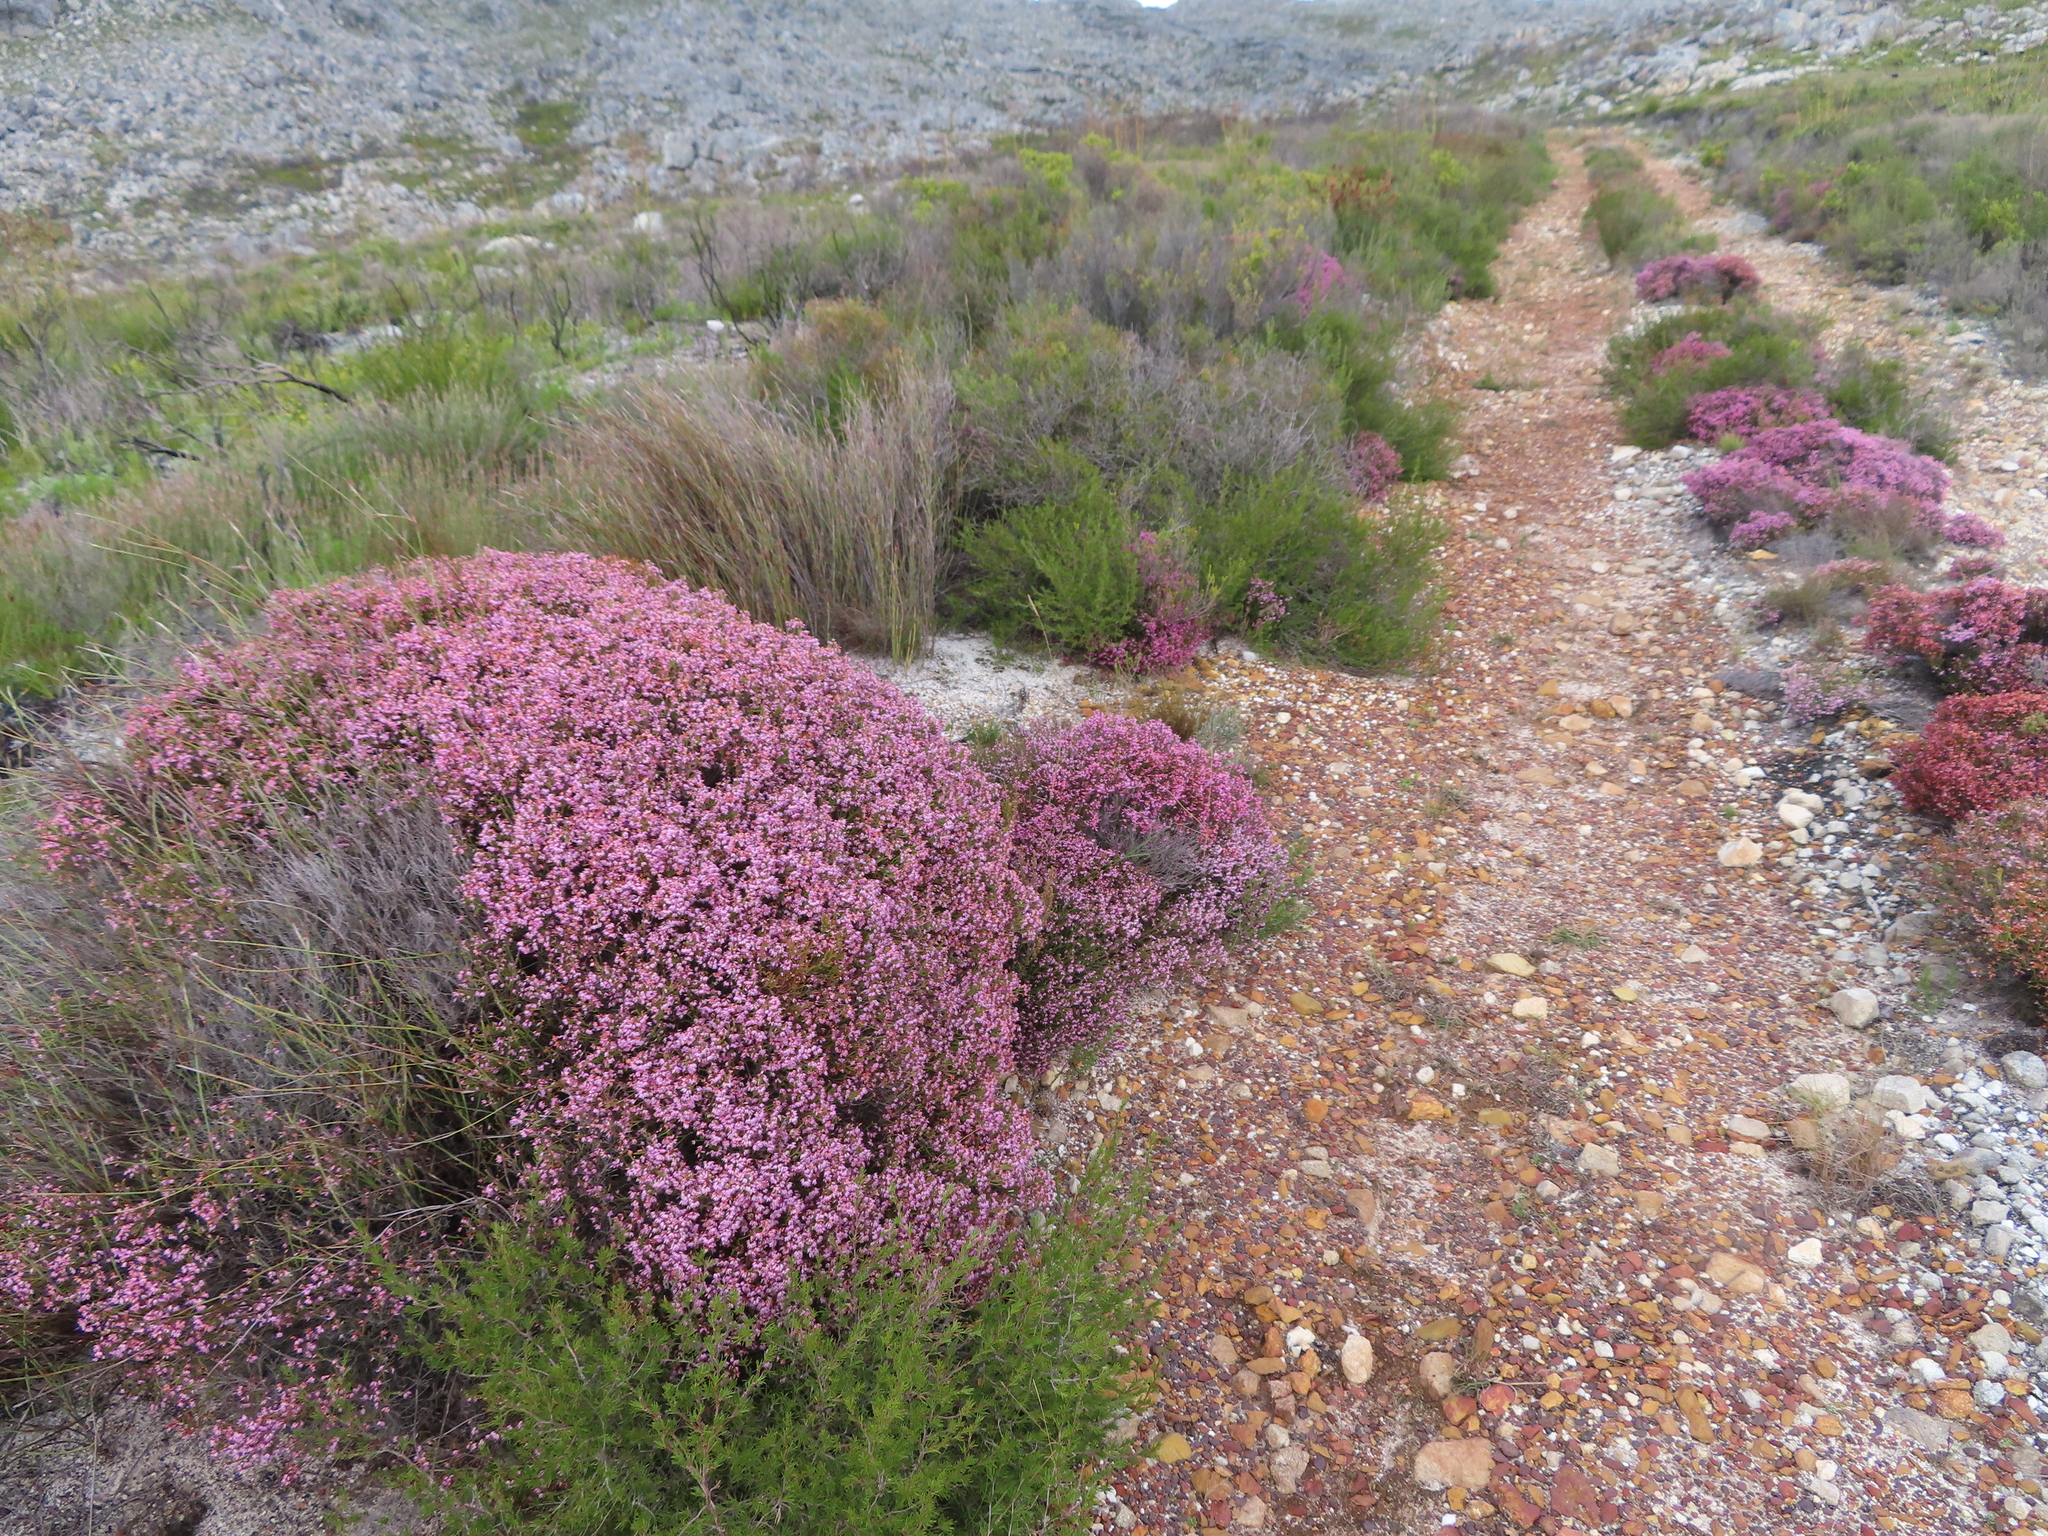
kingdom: Plantae
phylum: Tracheophyta
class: Magnoliopsida
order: Ericales
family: Ericaceae
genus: Erica
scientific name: Erica equisetifolia
